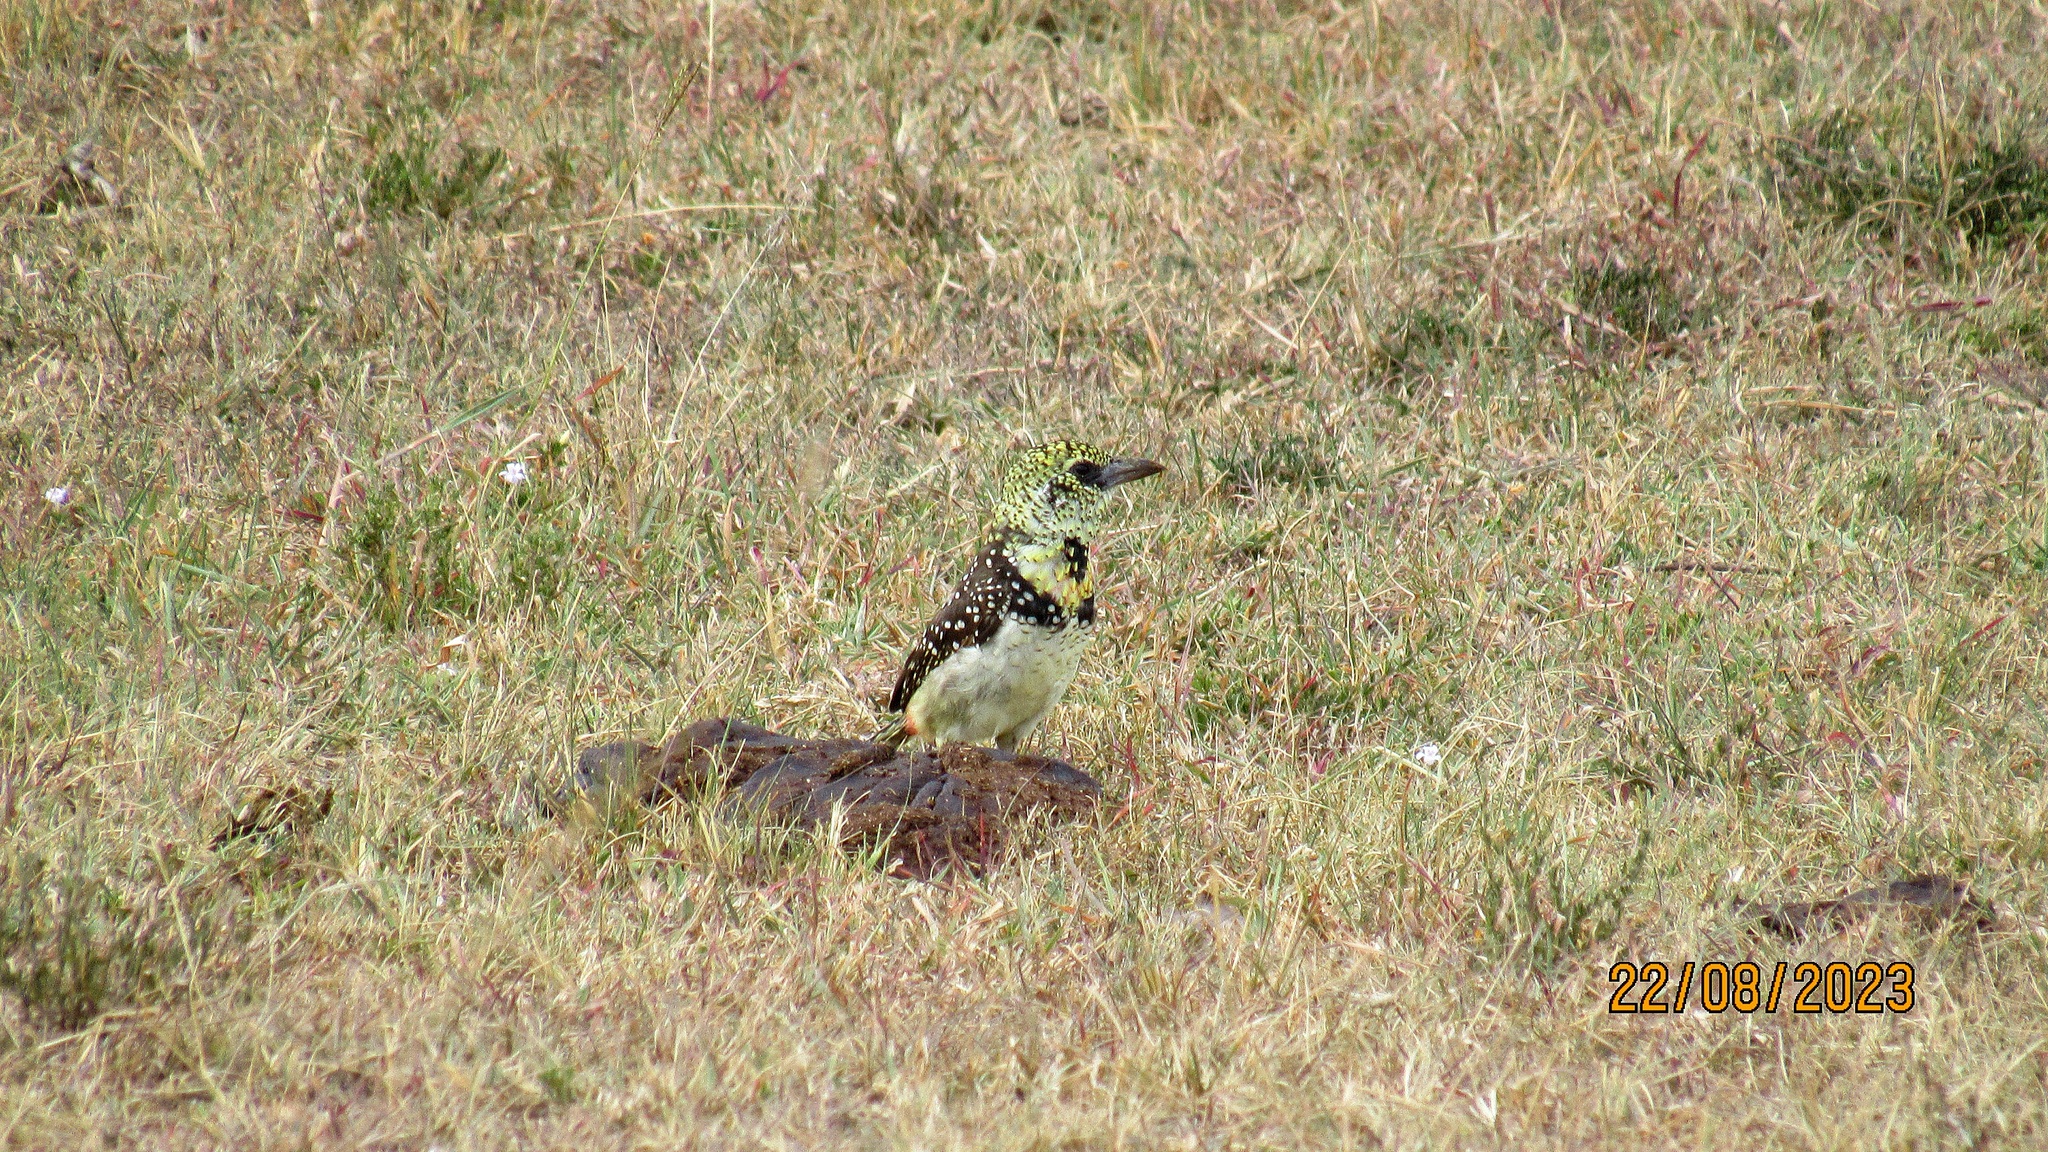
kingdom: Animalia
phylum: Chordata
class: Aves
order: Piciformes
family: Lybiidae
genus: Trachyphonus
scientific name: Trachyphonus darnaudii
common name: D'arnaud's barbet
